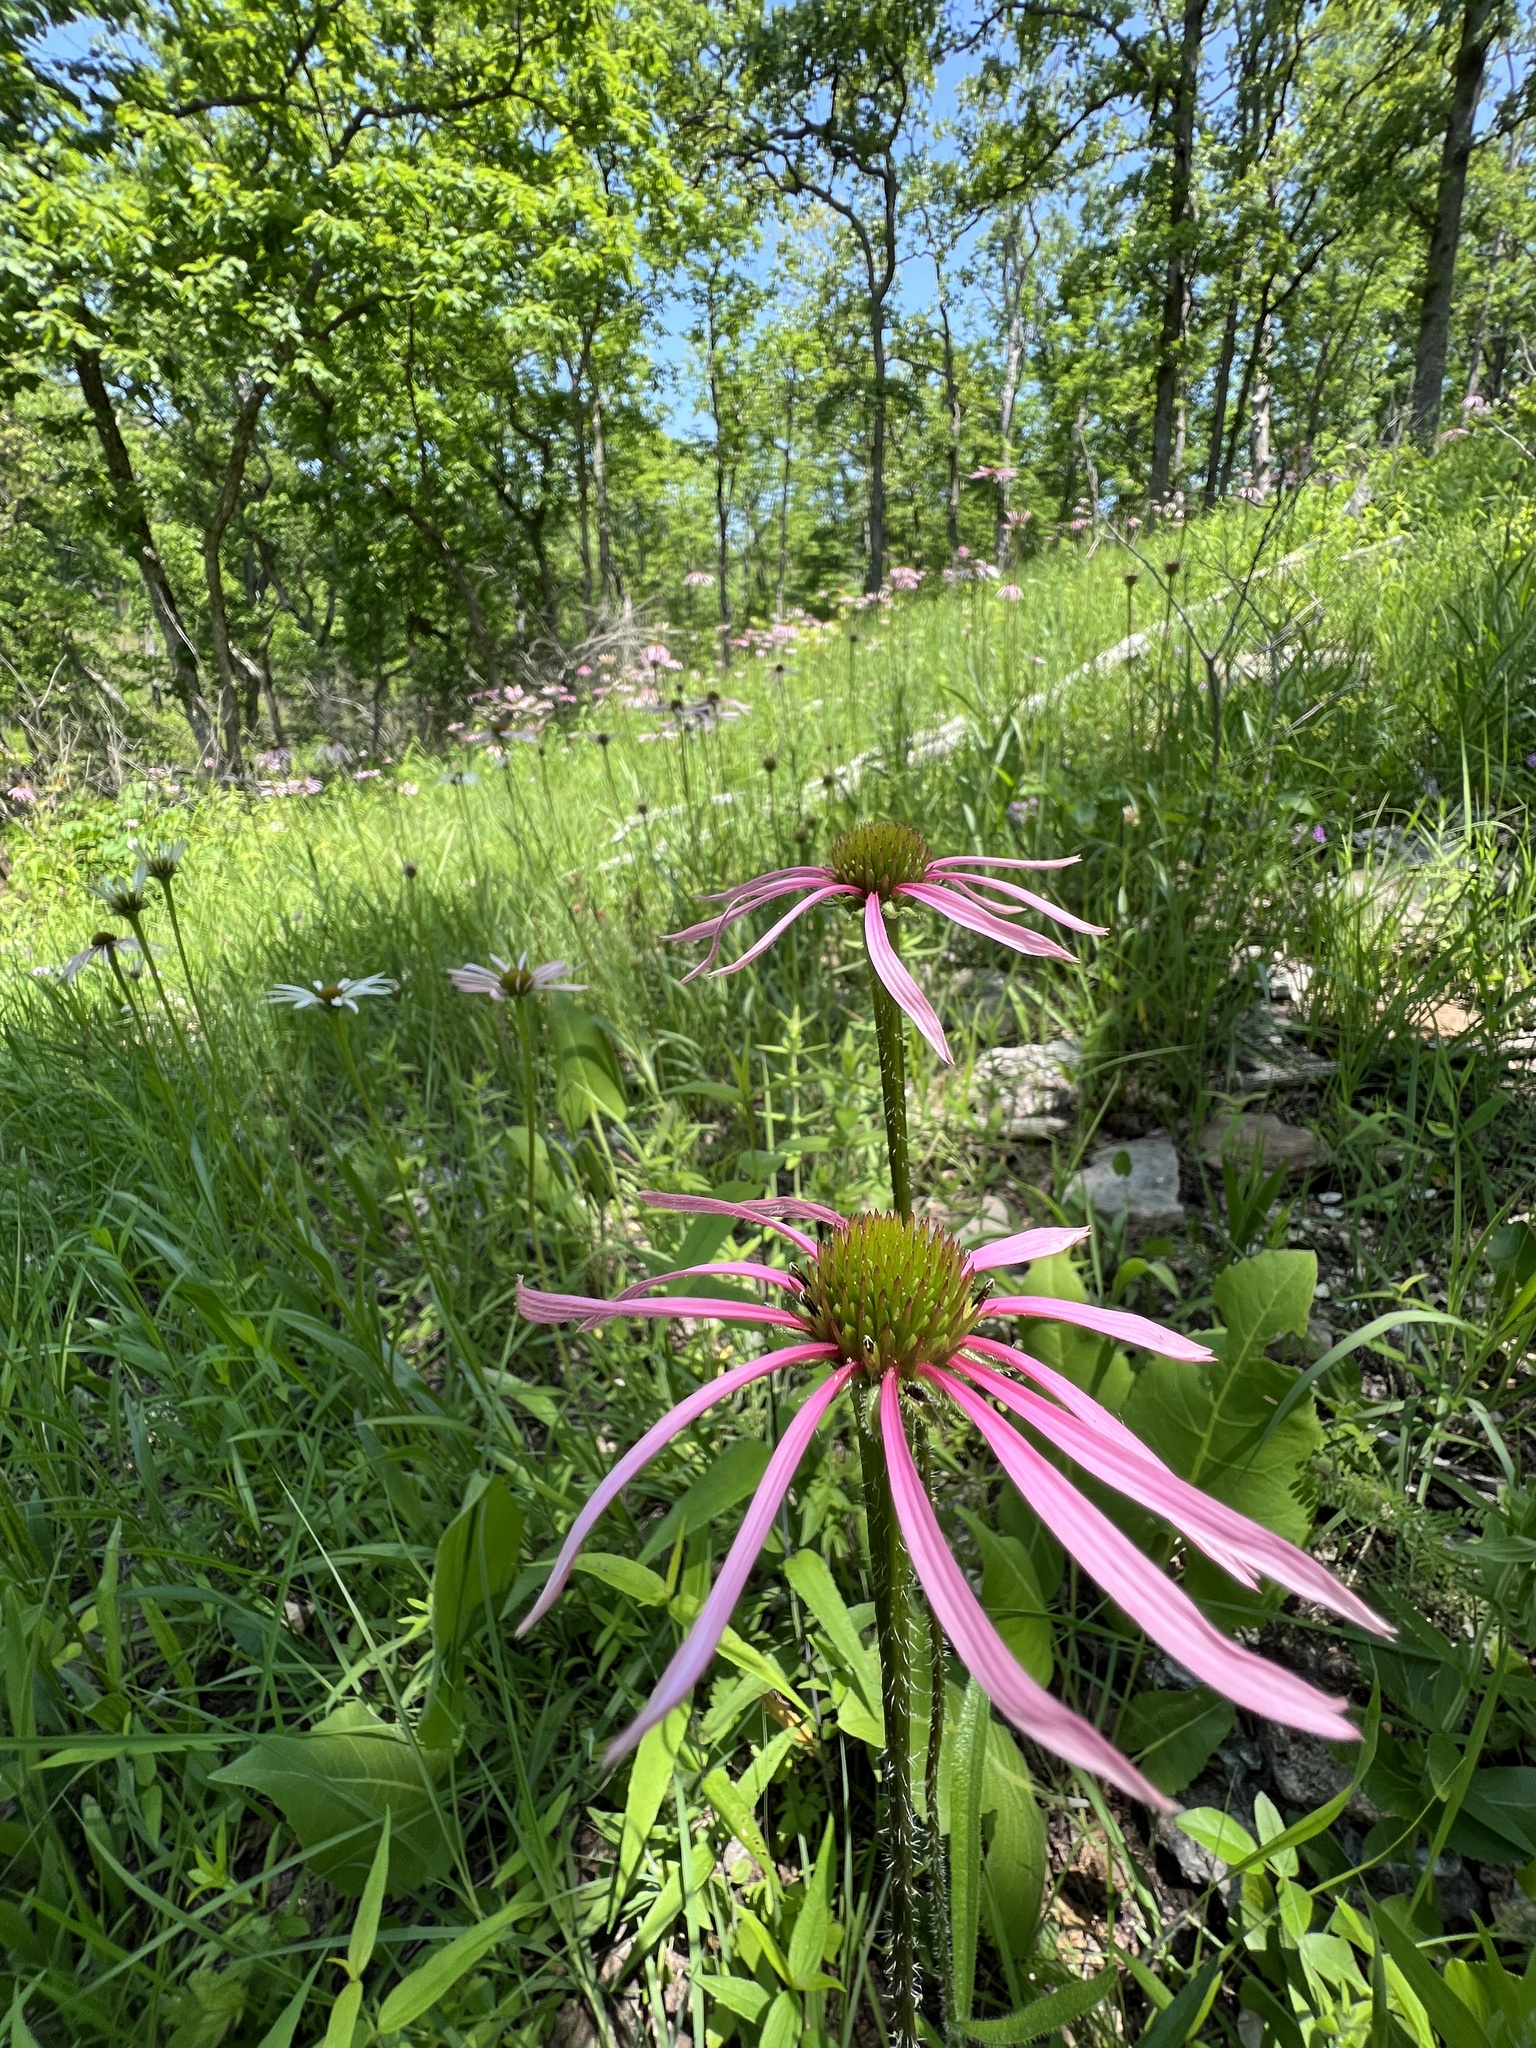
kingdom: Plantae
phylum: Tracheophyta
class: Magnoliopsida
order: Asterales
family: Asteraceae
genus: Echinacea
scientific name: Echinacea pallida
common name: Pale echinacea
